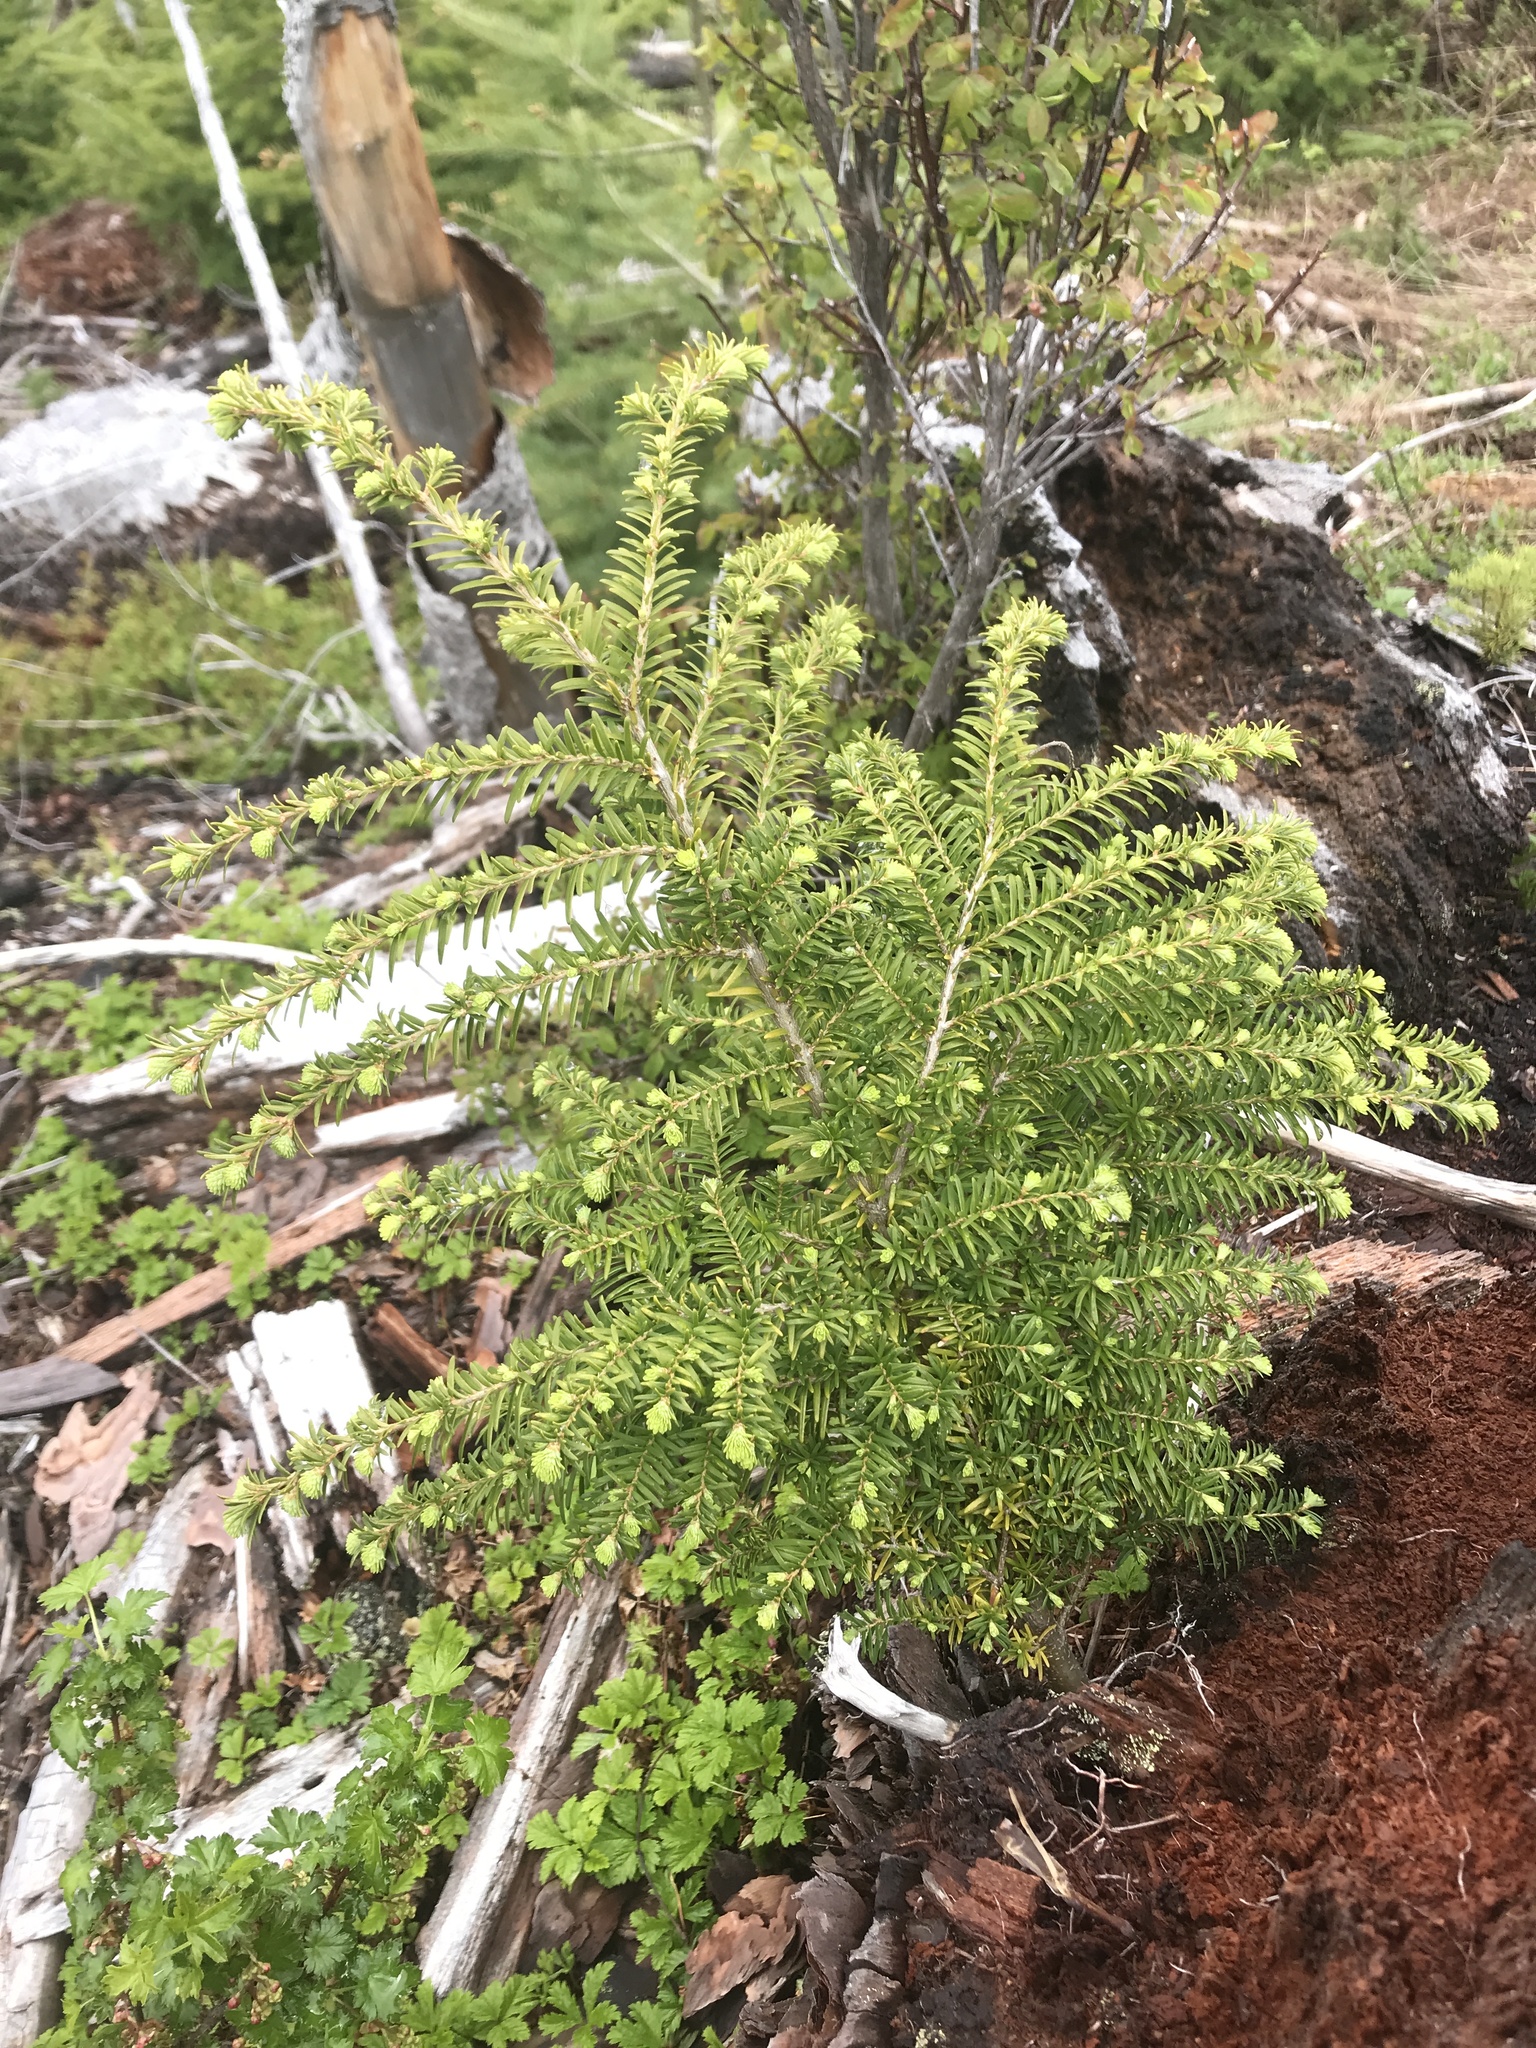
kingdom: Plantae
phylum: Tracheophyta
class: Pinopsida
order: Pinales
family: Pinaceae
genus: Tsuga
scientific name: Tsuga heterophylla
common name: Western hemlock
